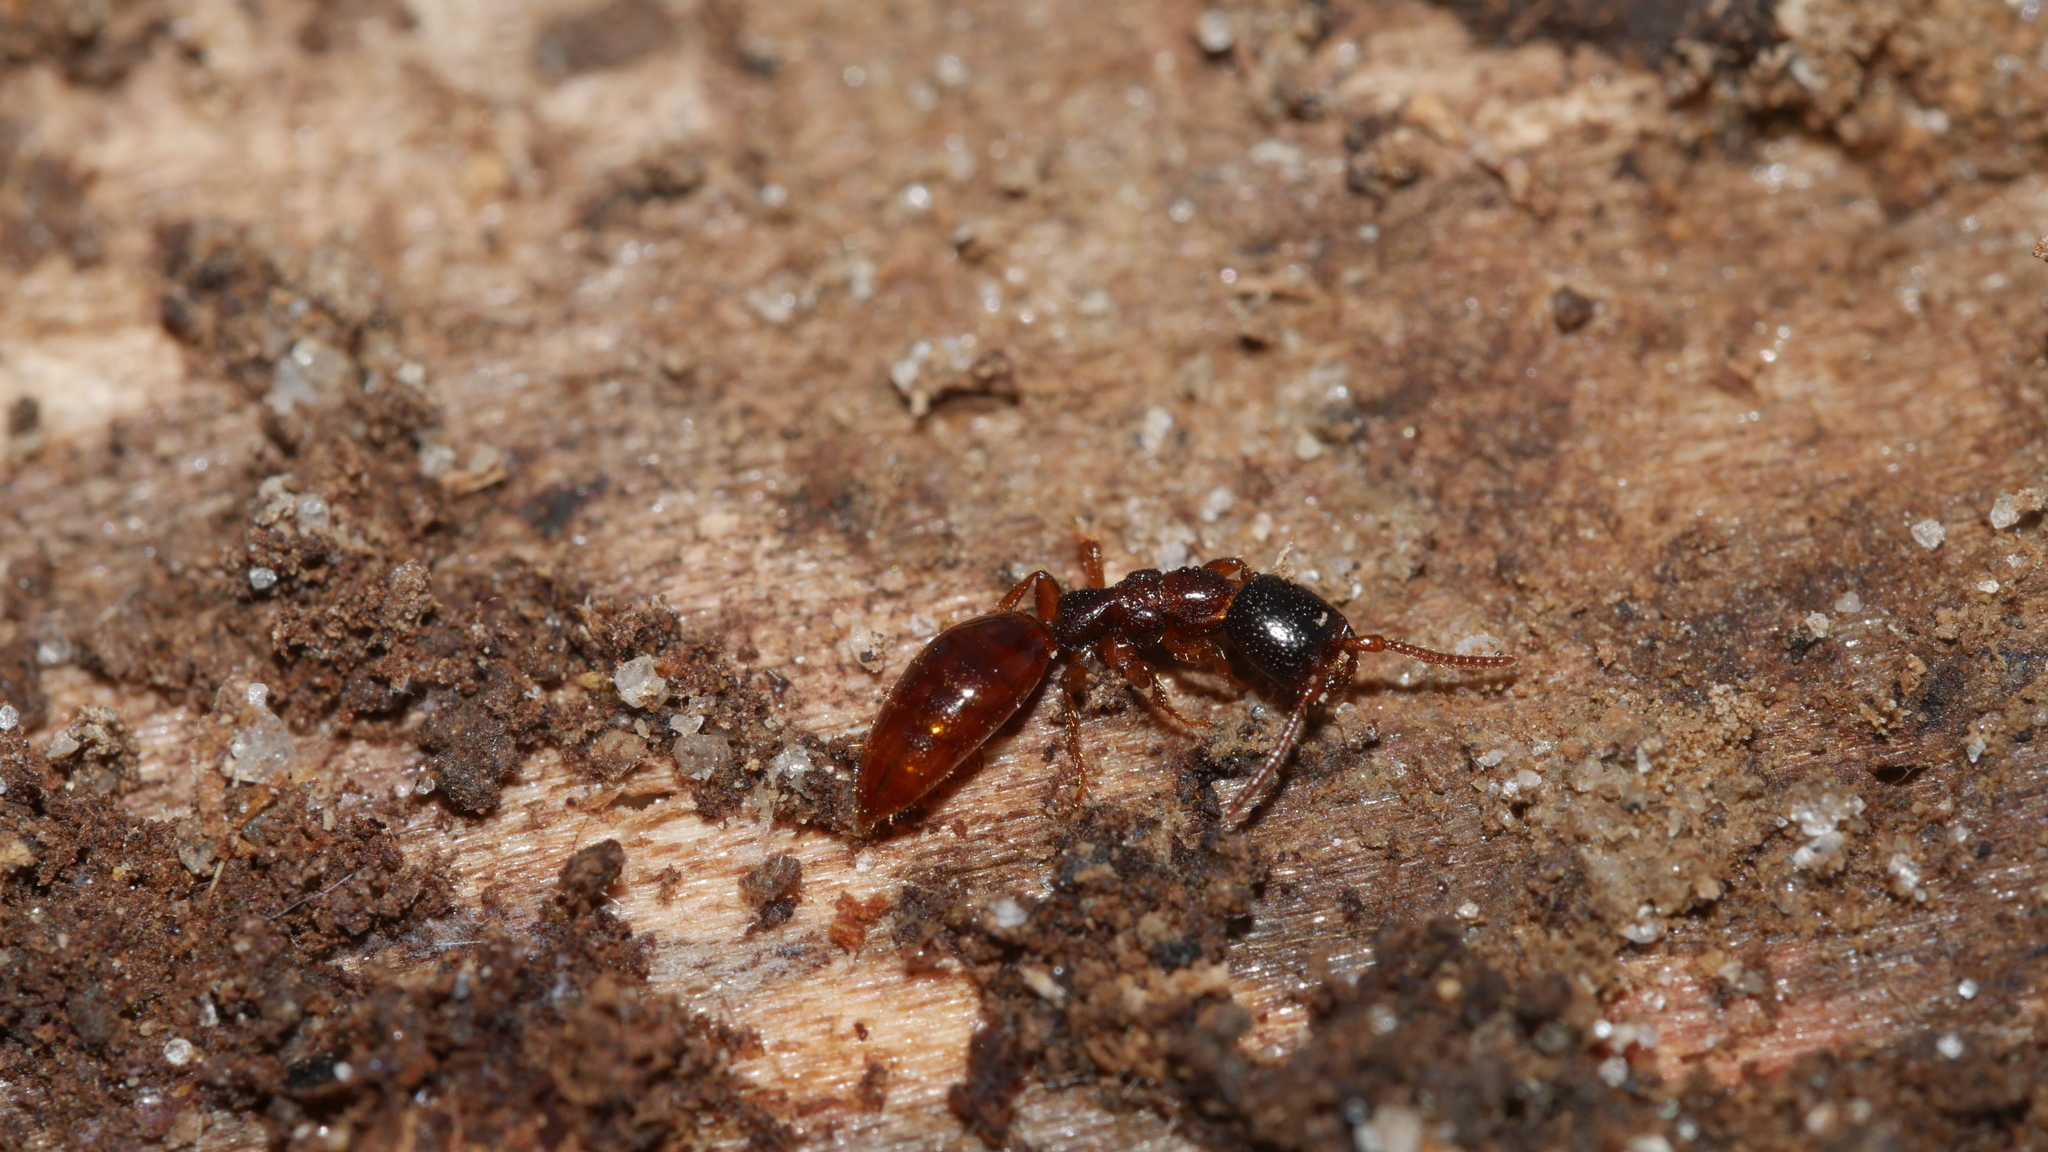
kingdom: Animalia
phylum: Arthropoda
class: Insecta
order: Hymenoptera
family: Bethylidae
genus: Pristepyris
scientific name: Pristepyris
